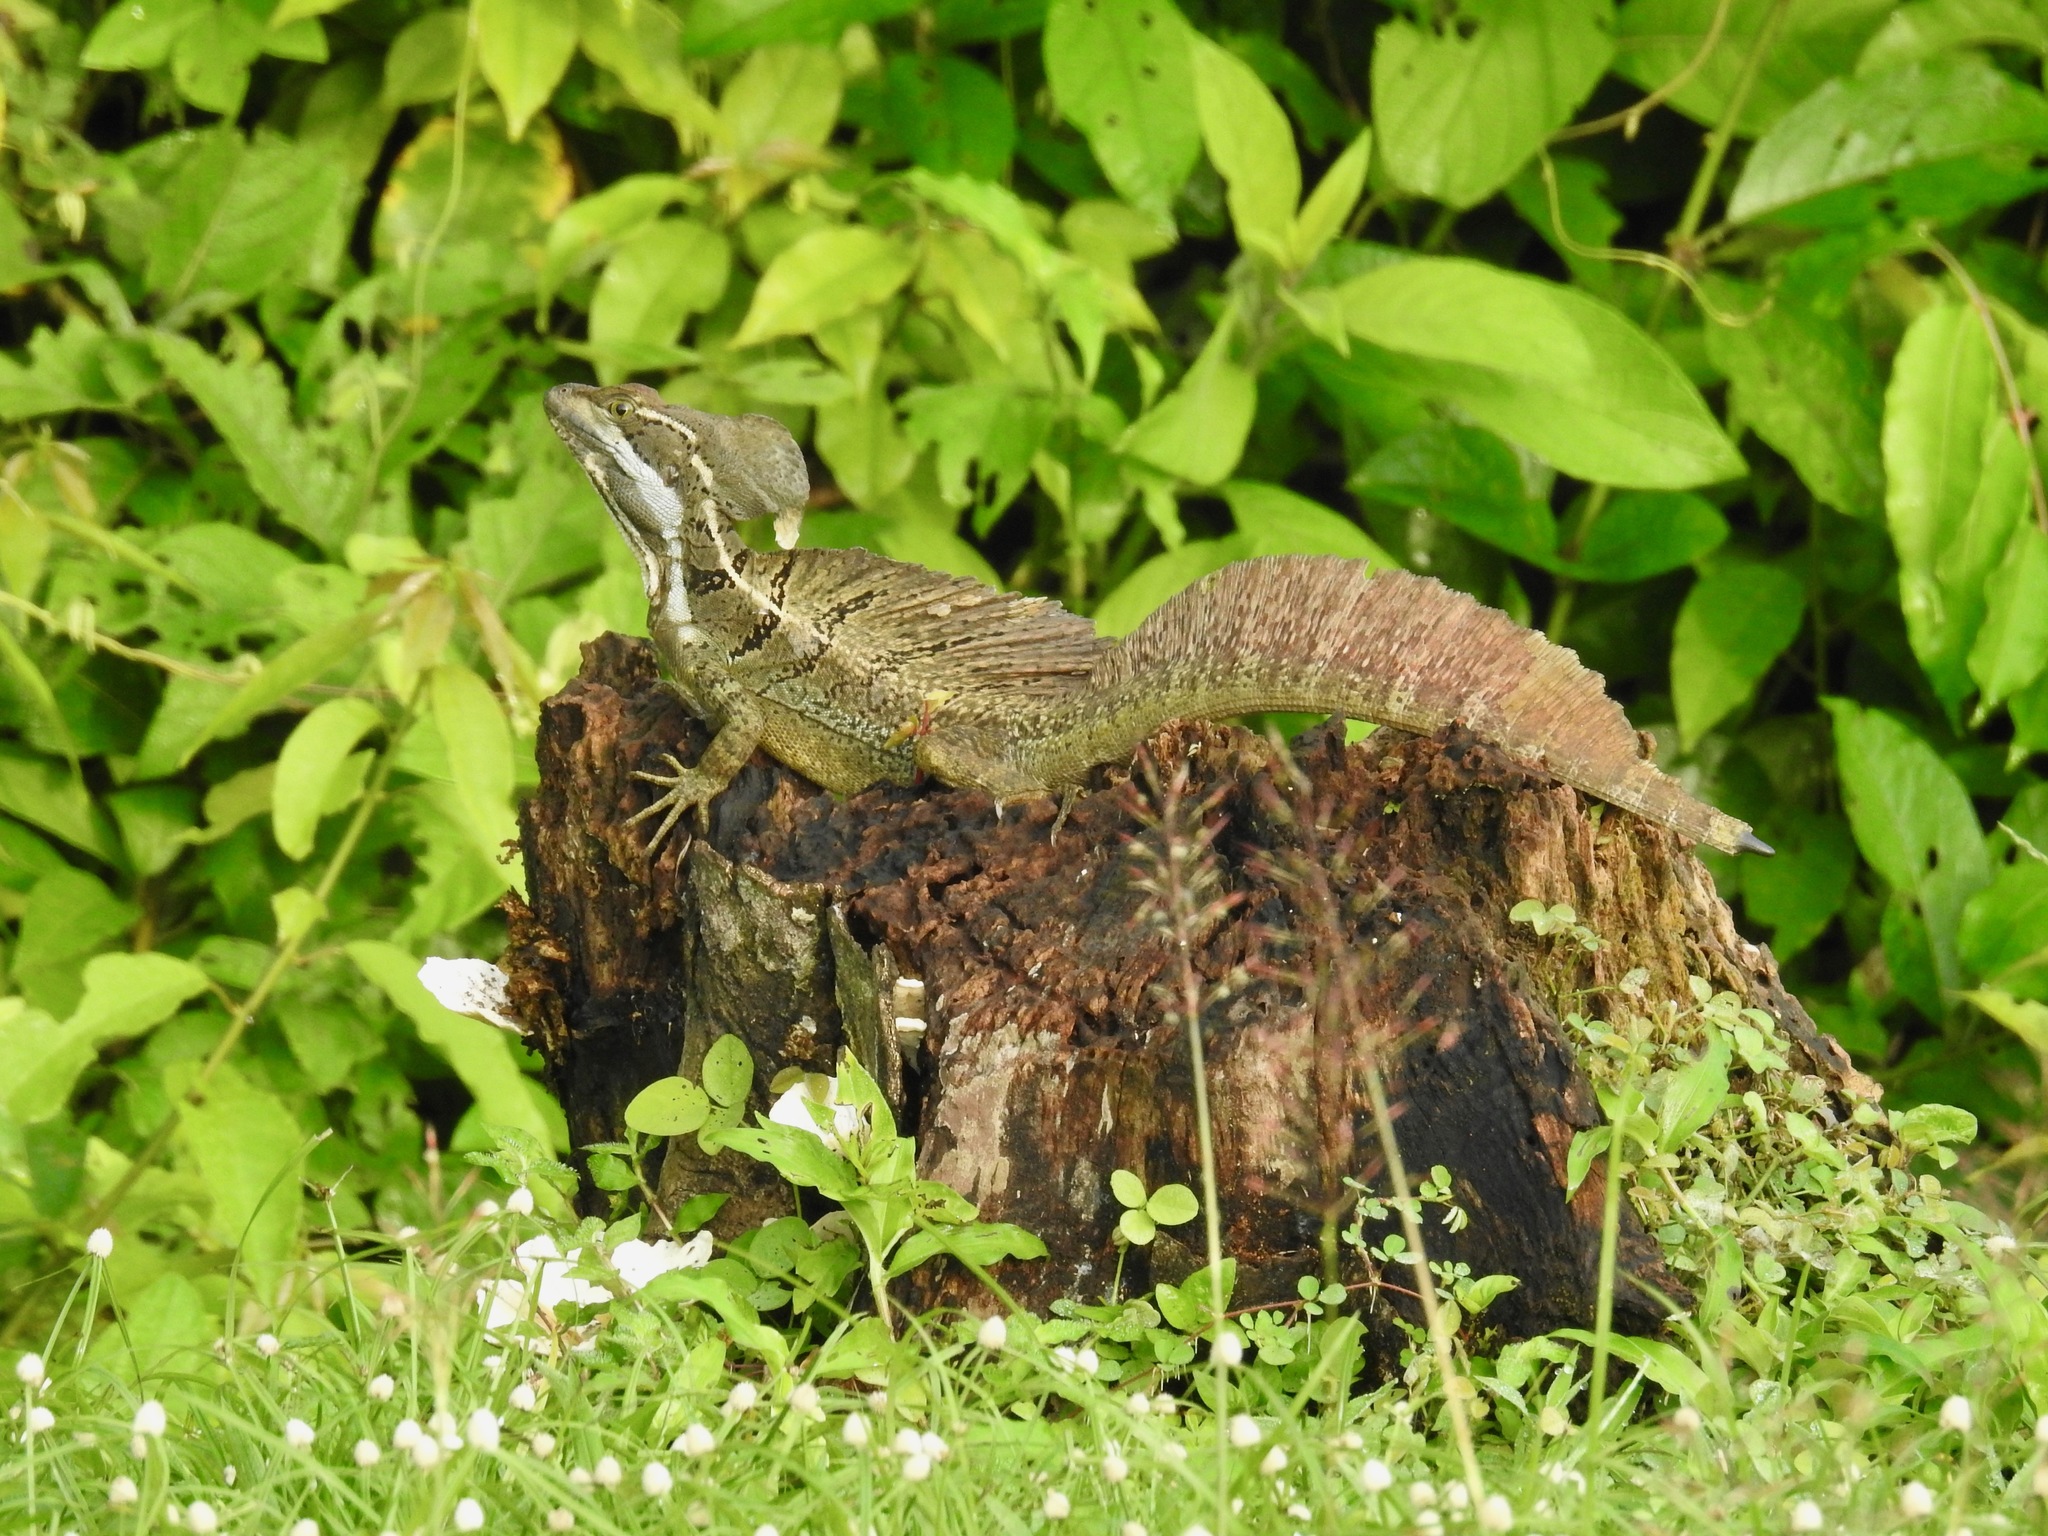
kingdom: Animalia
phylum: Chordata
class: Squamata
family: Corytophanidae
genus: Basiliscus
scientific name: Basiliscus basiliscus
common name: Common basilisk
